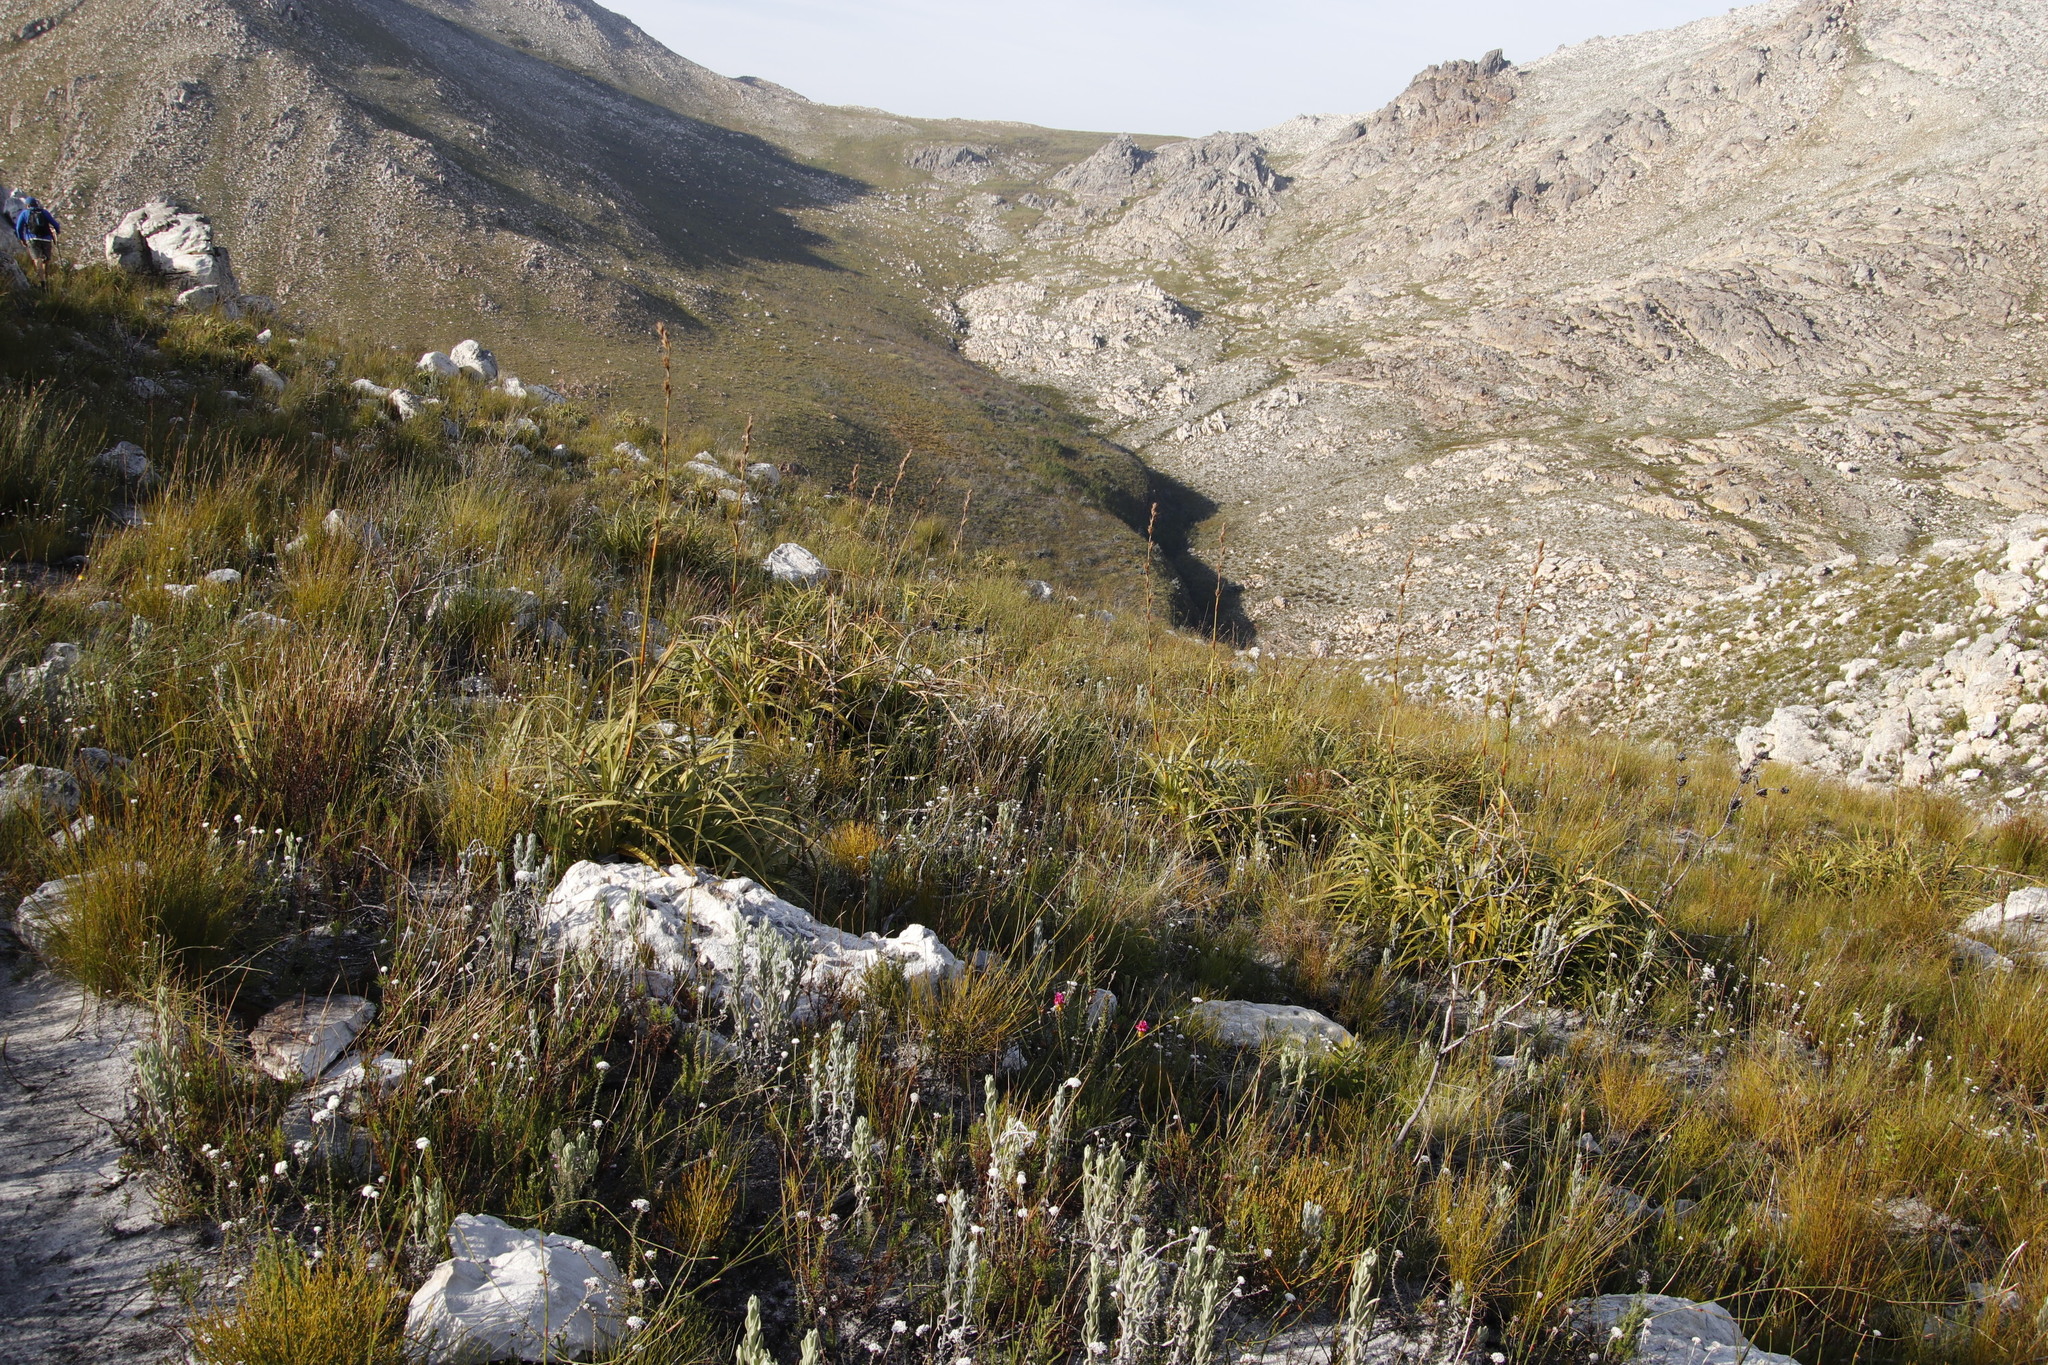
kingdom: Plantae
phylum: Tracheophyta
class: Liliopsida
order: Poales
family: Cyperaceae
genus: Tetraria
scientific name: Tetraria thermalis
